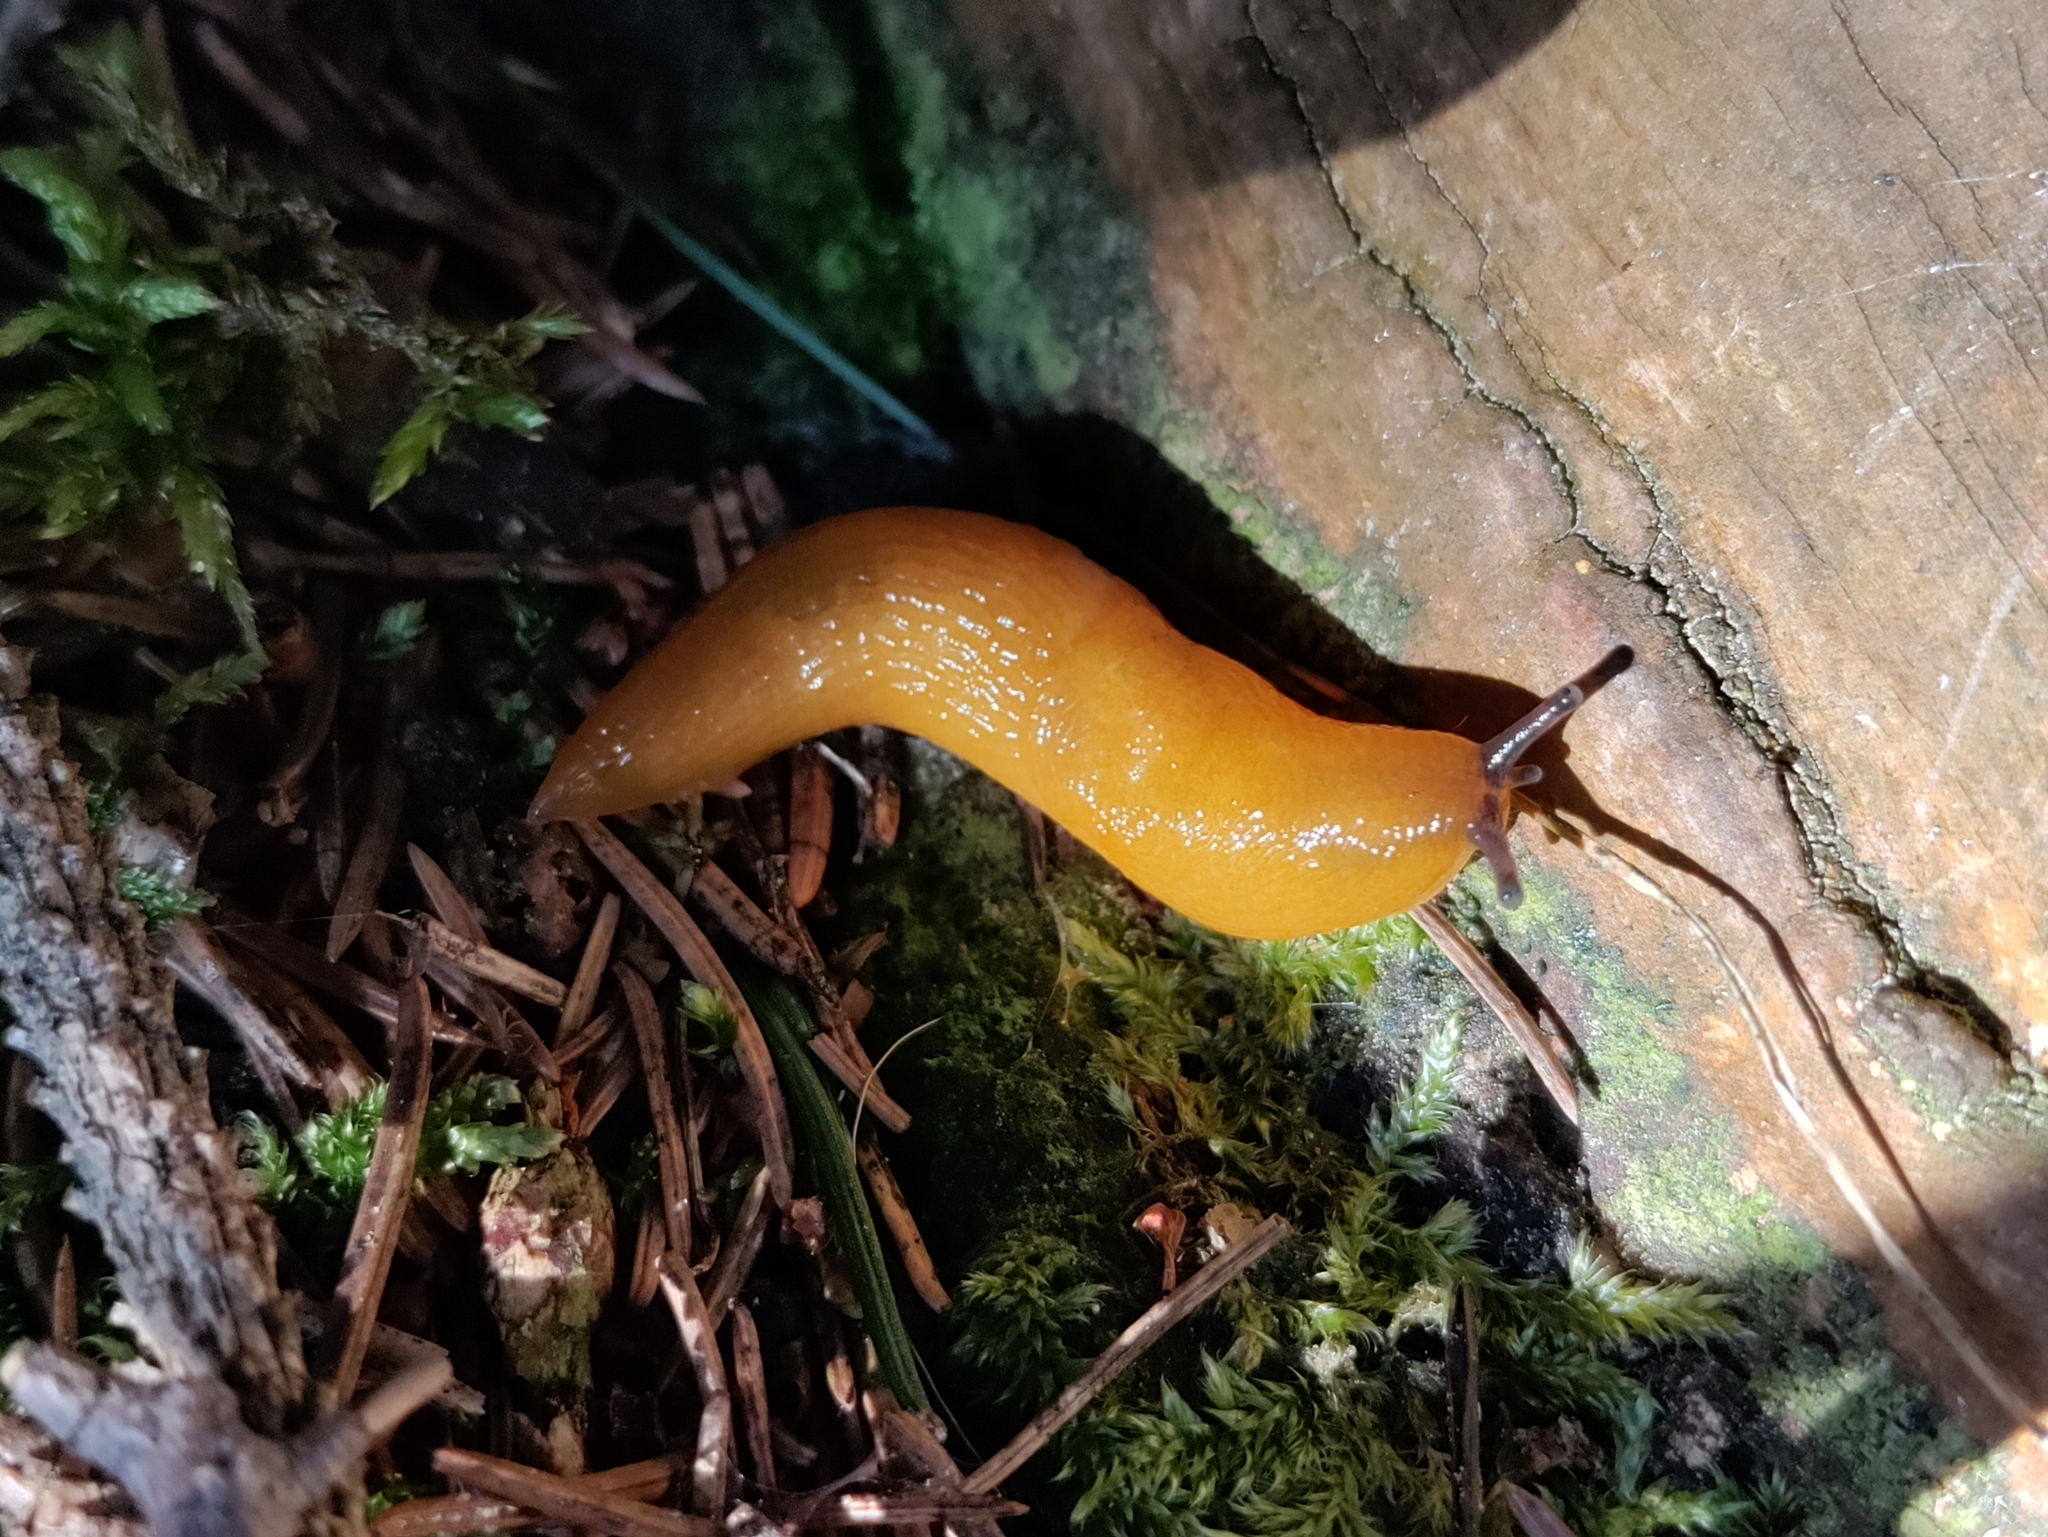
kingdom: Animalia
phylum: Mollusca
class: Gastropoda
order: Stylommatophora
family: Limacidae
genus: Malacolimax
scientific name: Malacolimax tenellus
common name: Lemon slug
